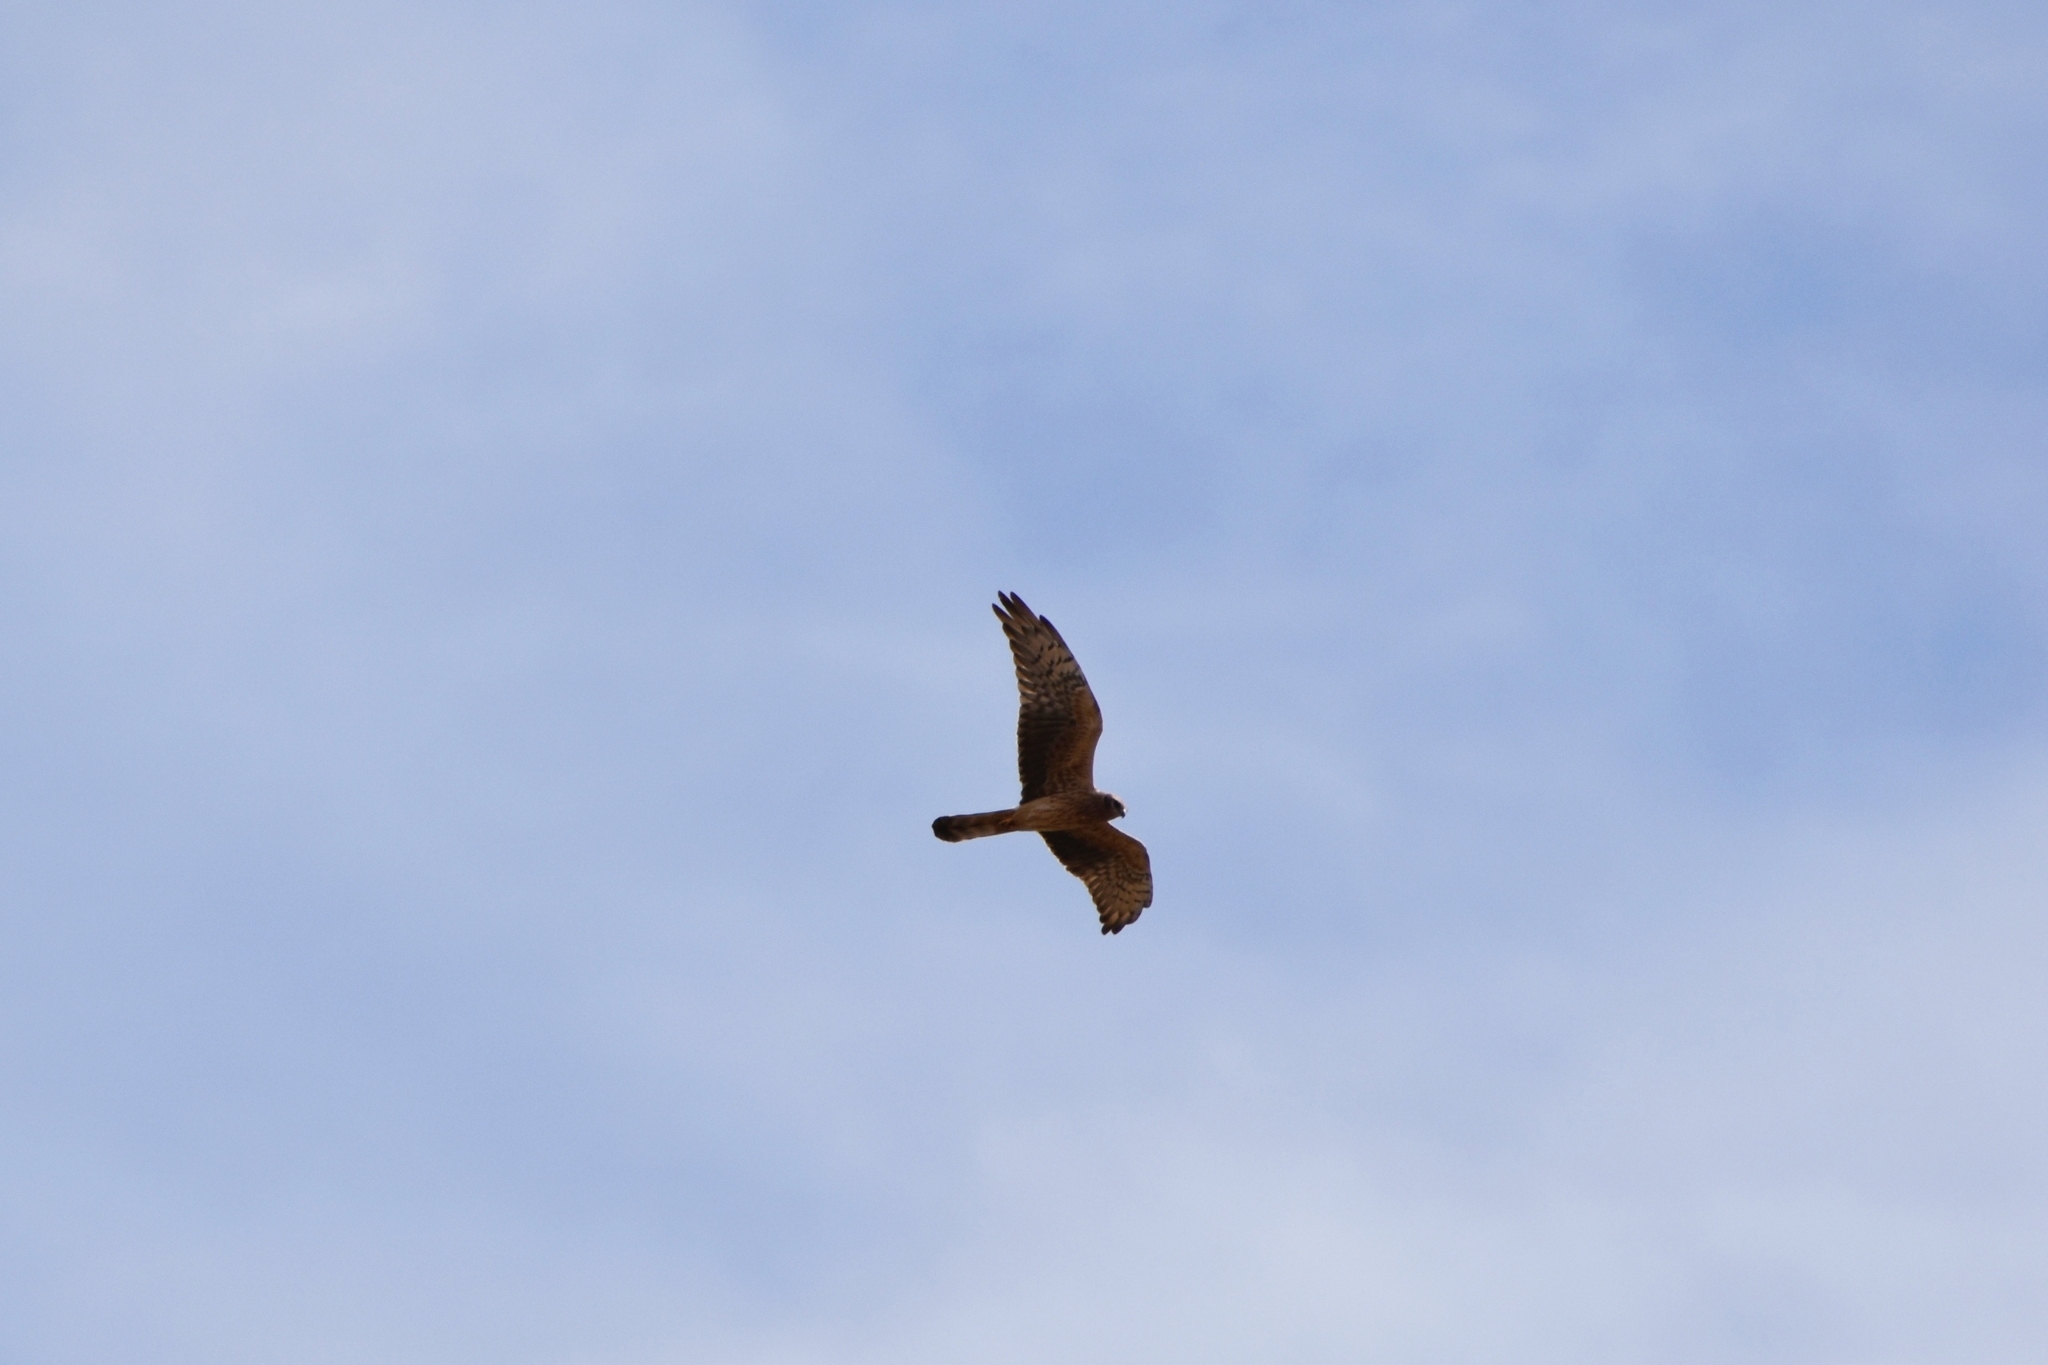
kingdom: Animalia
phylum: Chordata
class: Aves
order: Accipitriformes
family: Accipitridae
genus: Circus
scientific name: Circus macrourus
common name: Pallid harrier
